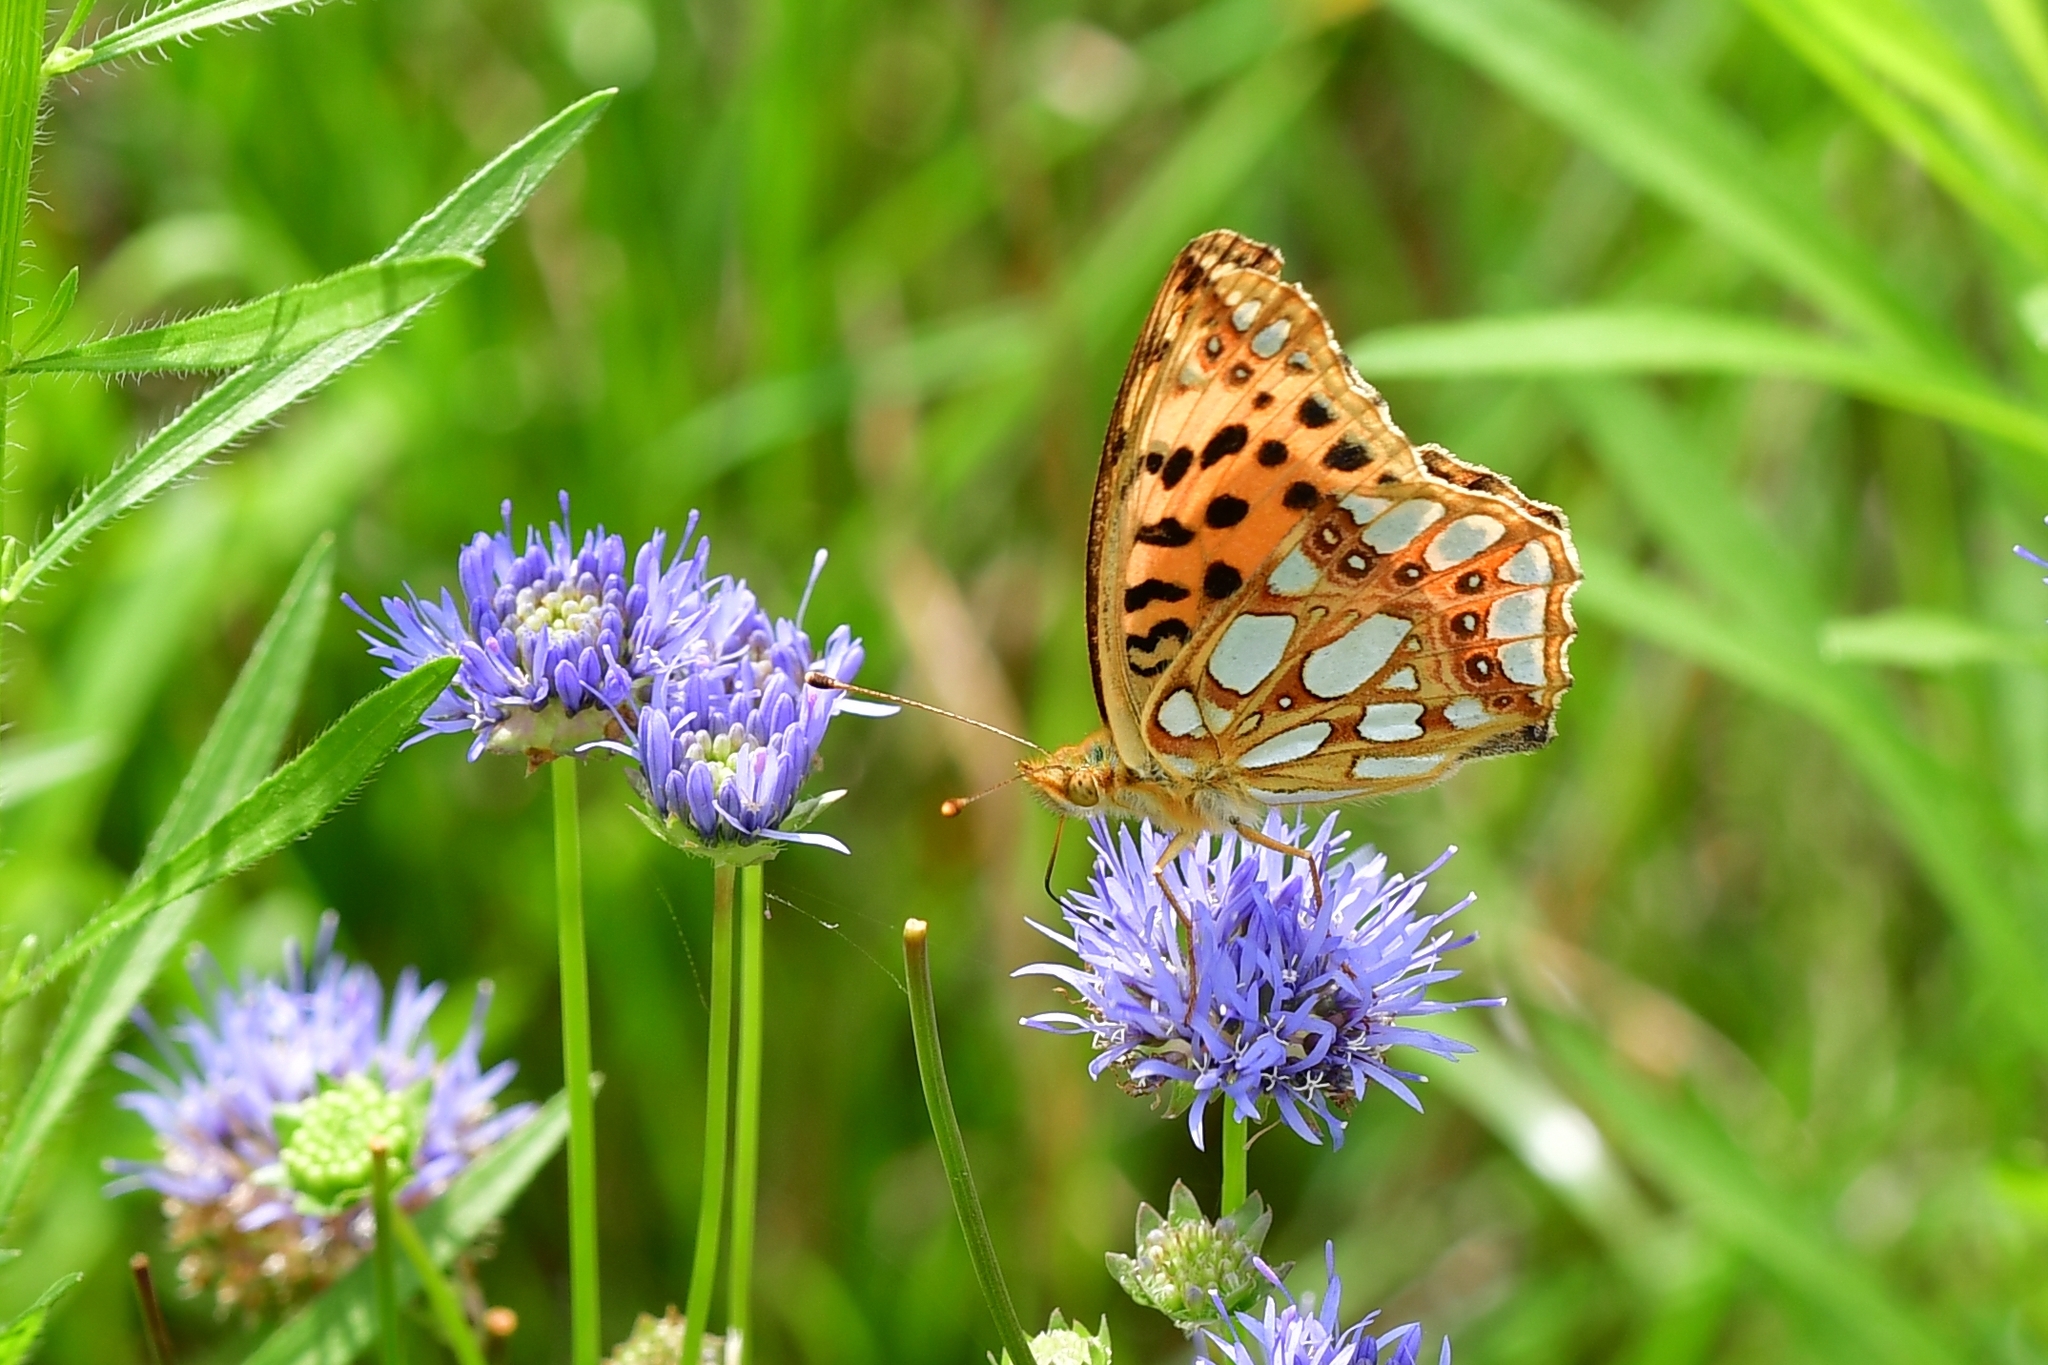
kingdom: Animalia
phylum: Arthropoda
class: Insecta
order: Lepidoptera
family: Nymphalidae
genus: Issoria
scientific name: Issoria lathonia
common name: Queen of spain fritillary
